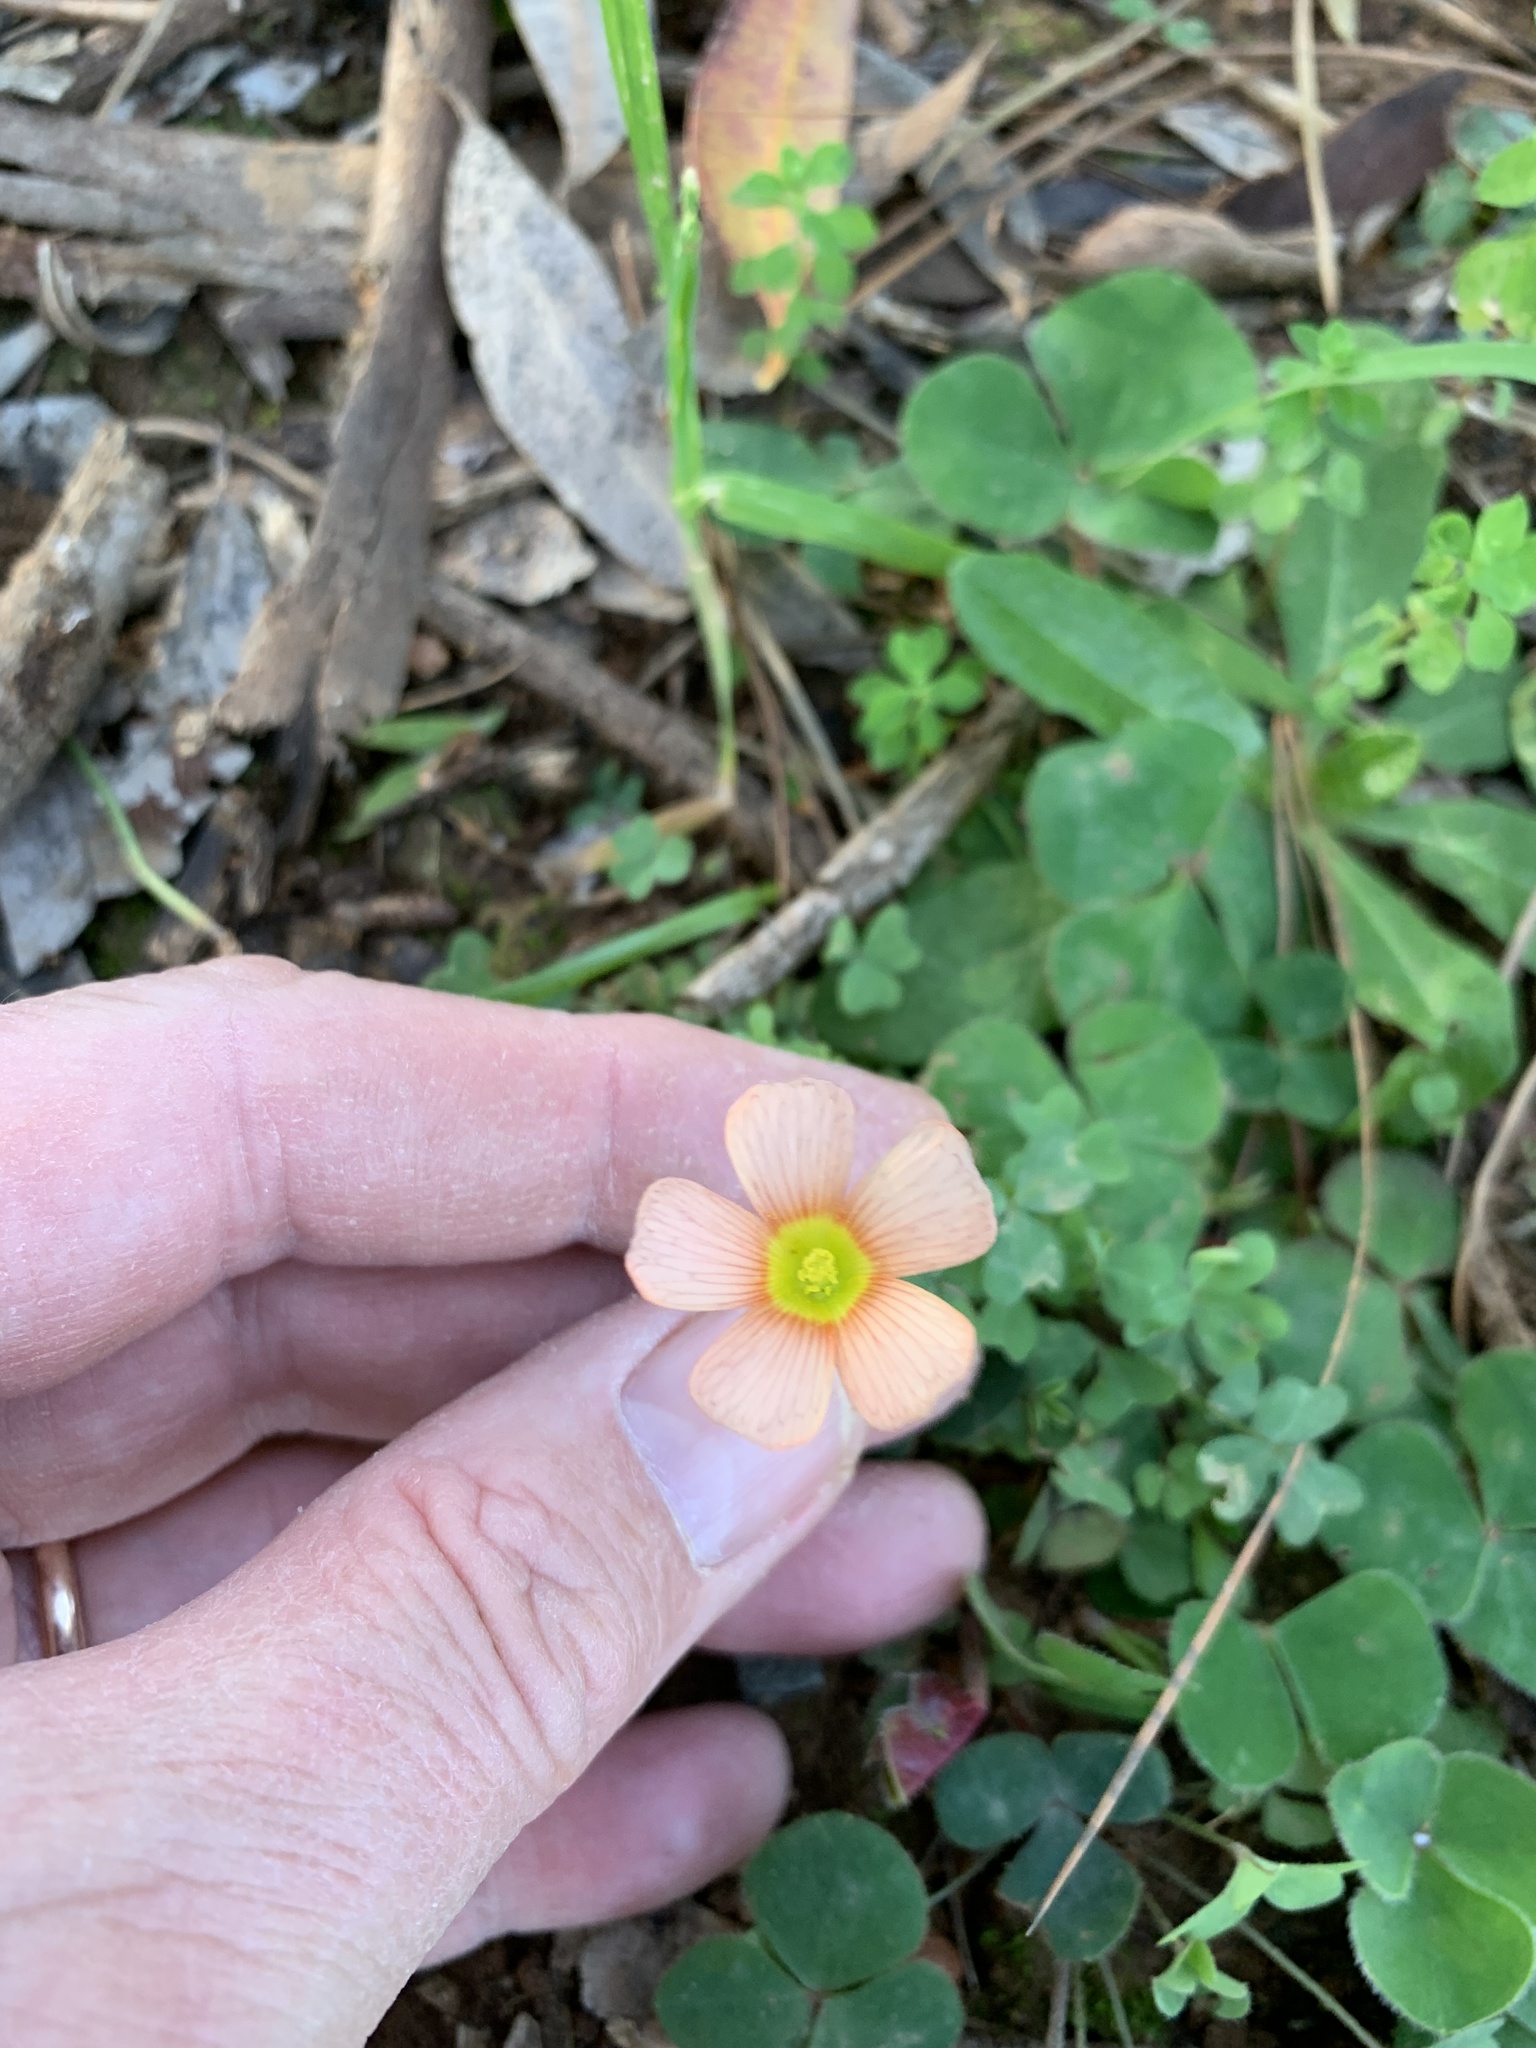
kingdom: Plantae
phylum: Tracheophyta
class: Magnoliopsida
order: Oxalidales
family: Oxalidaceae
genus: Oxalis
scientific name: Oxalis obtusa
